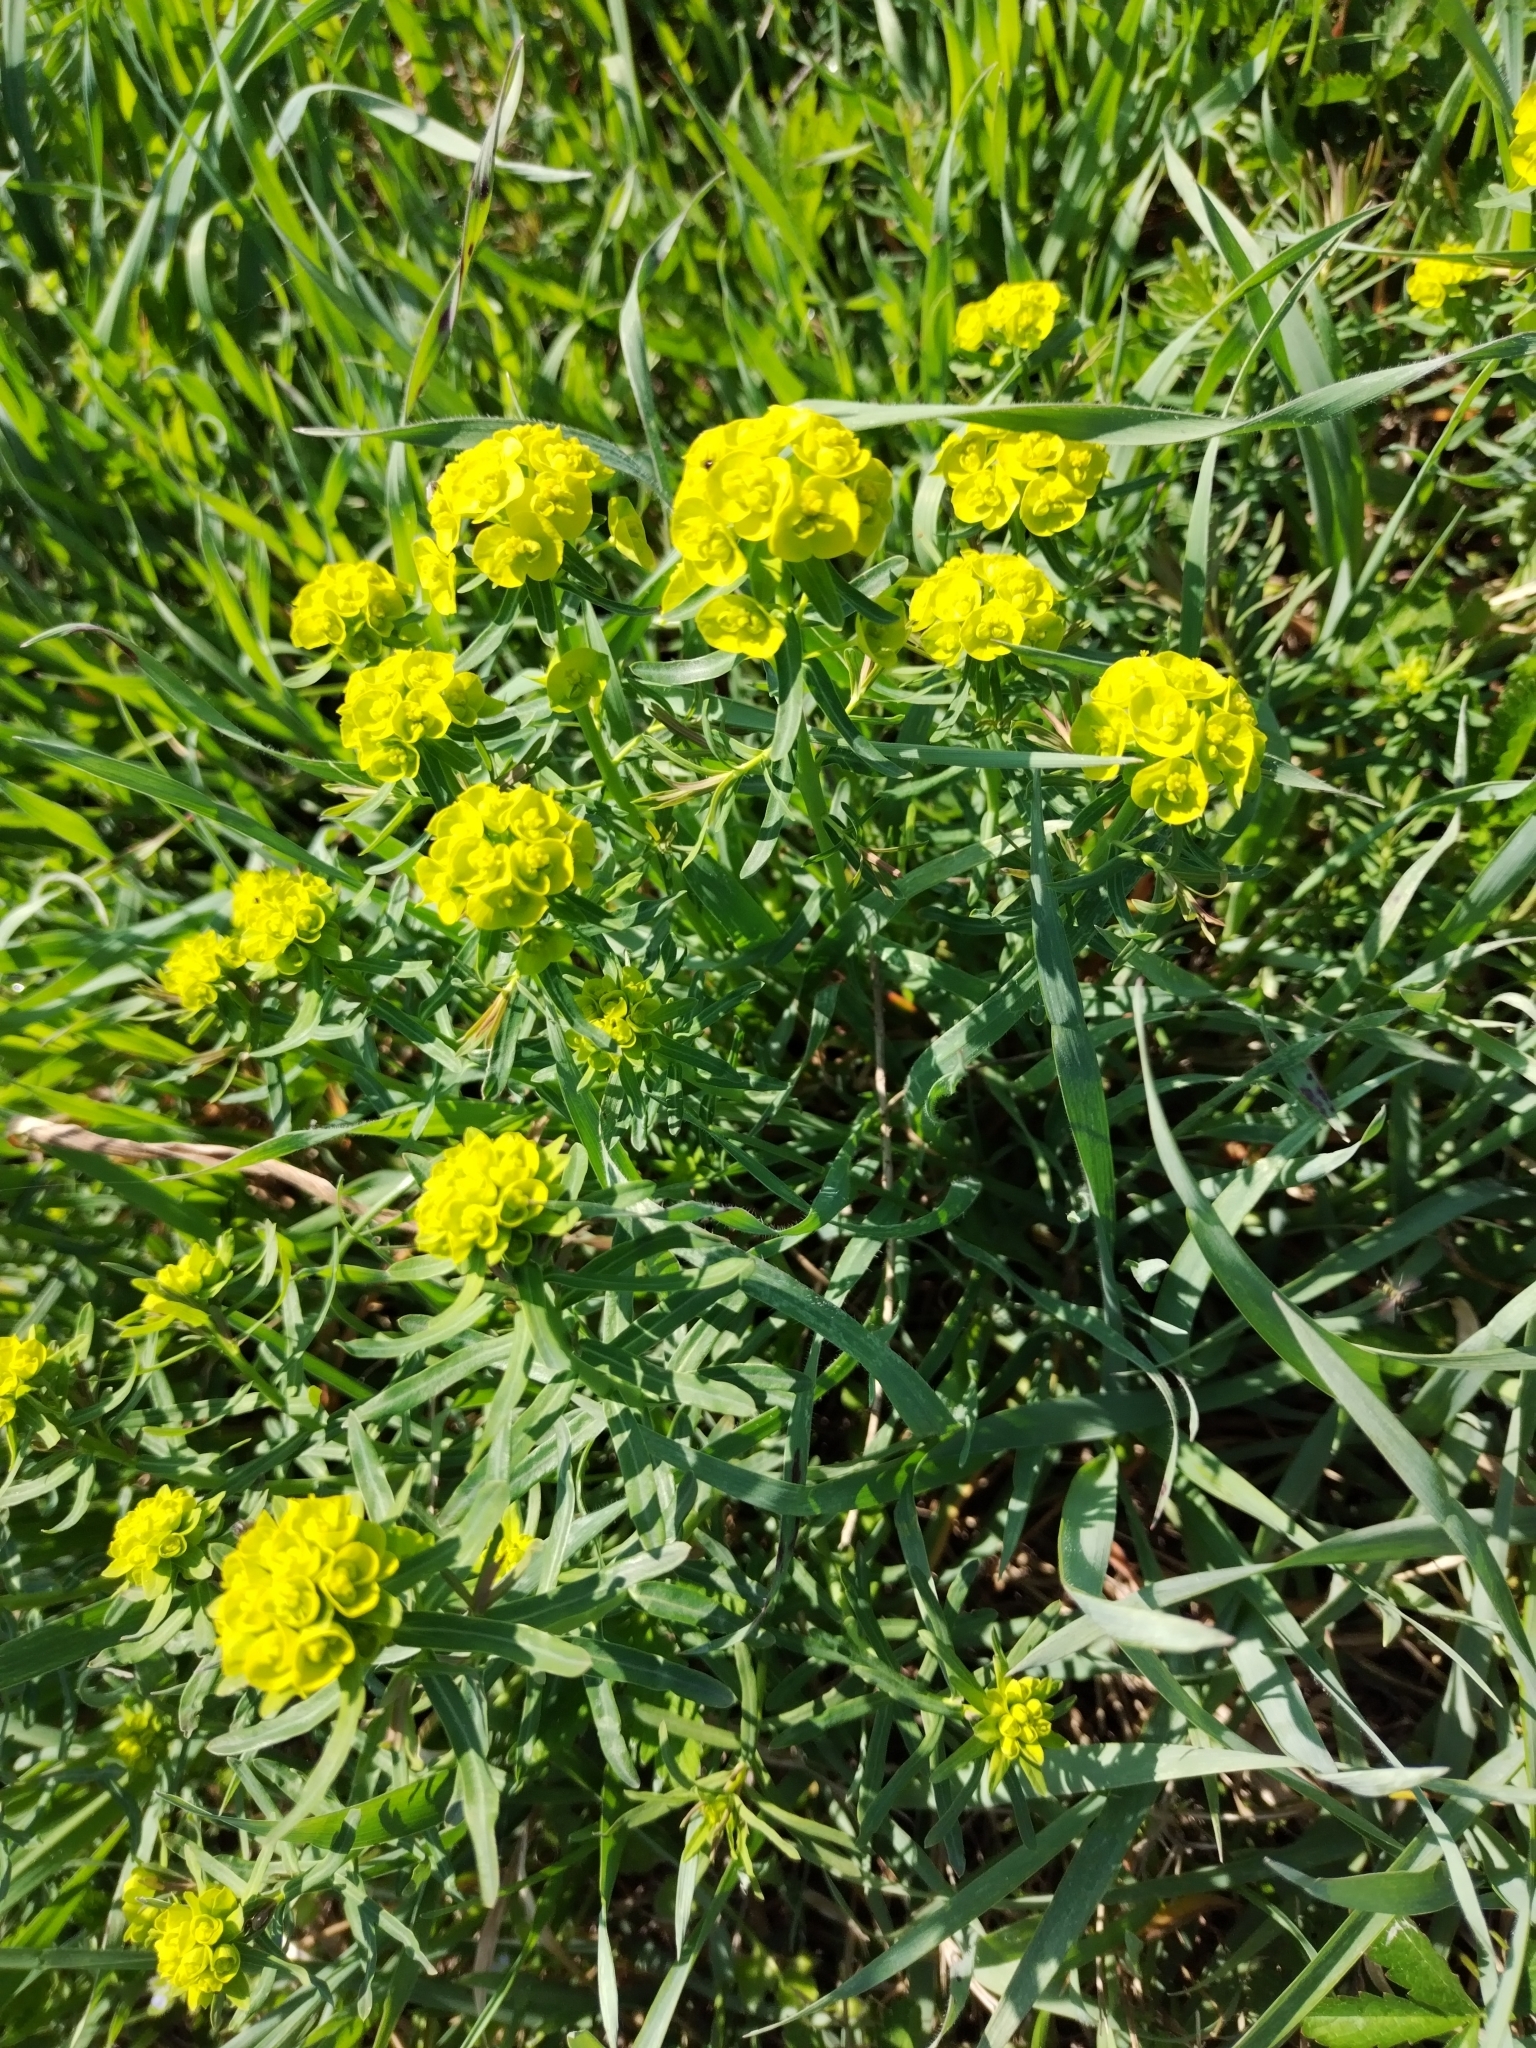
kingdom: Plantae
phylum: Tracheophyta
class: Magnoliopsida
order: Malpighiales
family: Euphorbiaceae
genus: Euphorbia
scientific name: Euphorbia cyparissias
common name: Cypress spurge
